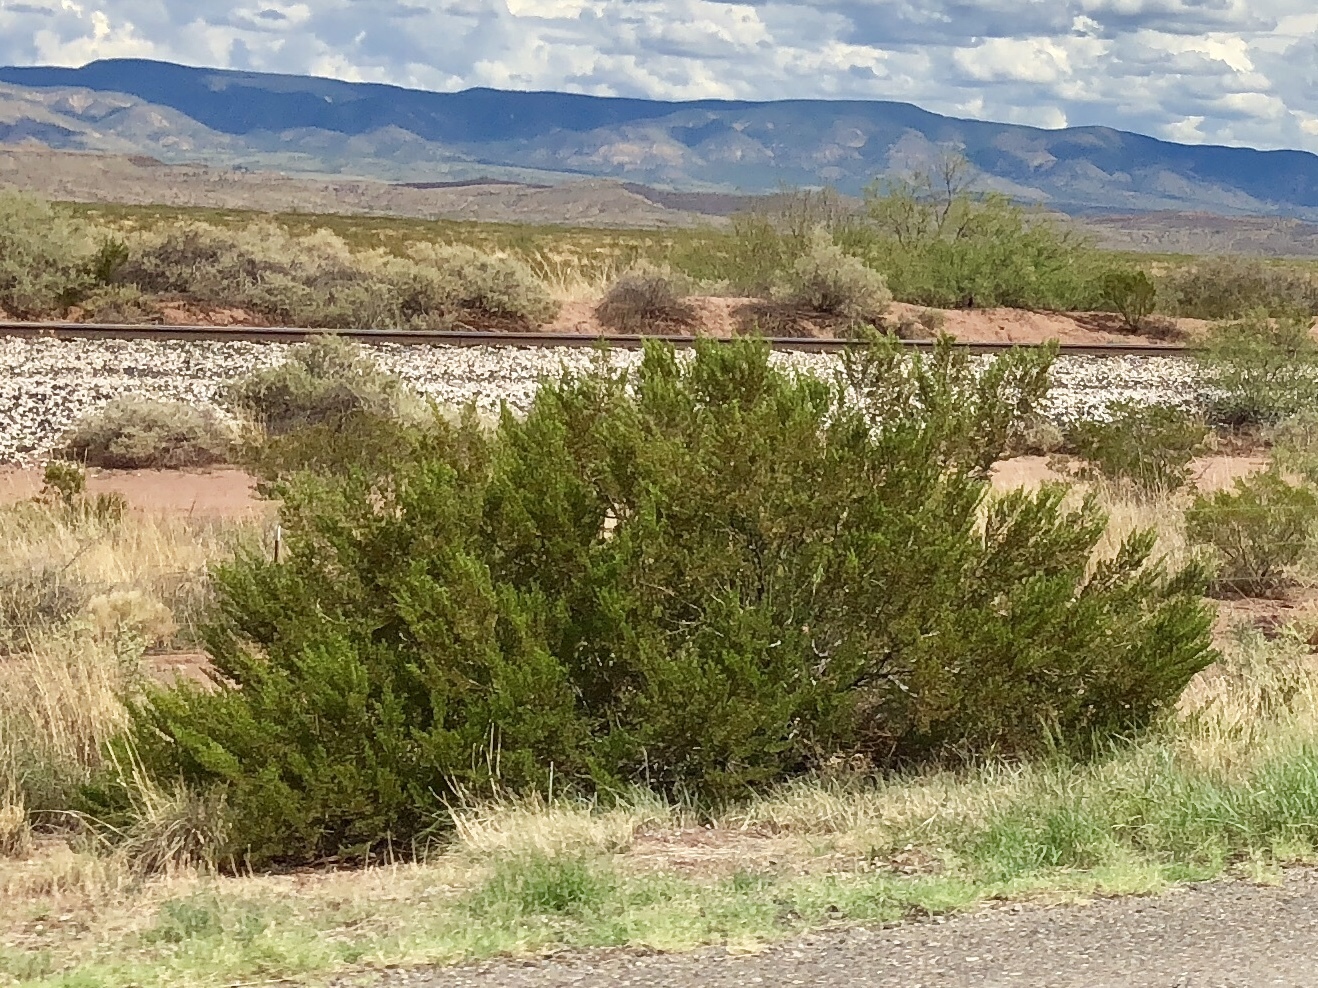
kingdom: Plantae
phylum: Tracheophyta
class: Magnoliopsida
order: Zygophyllales
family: Zygophyllaceae
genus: Larrea
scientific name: Larrea tridentata
